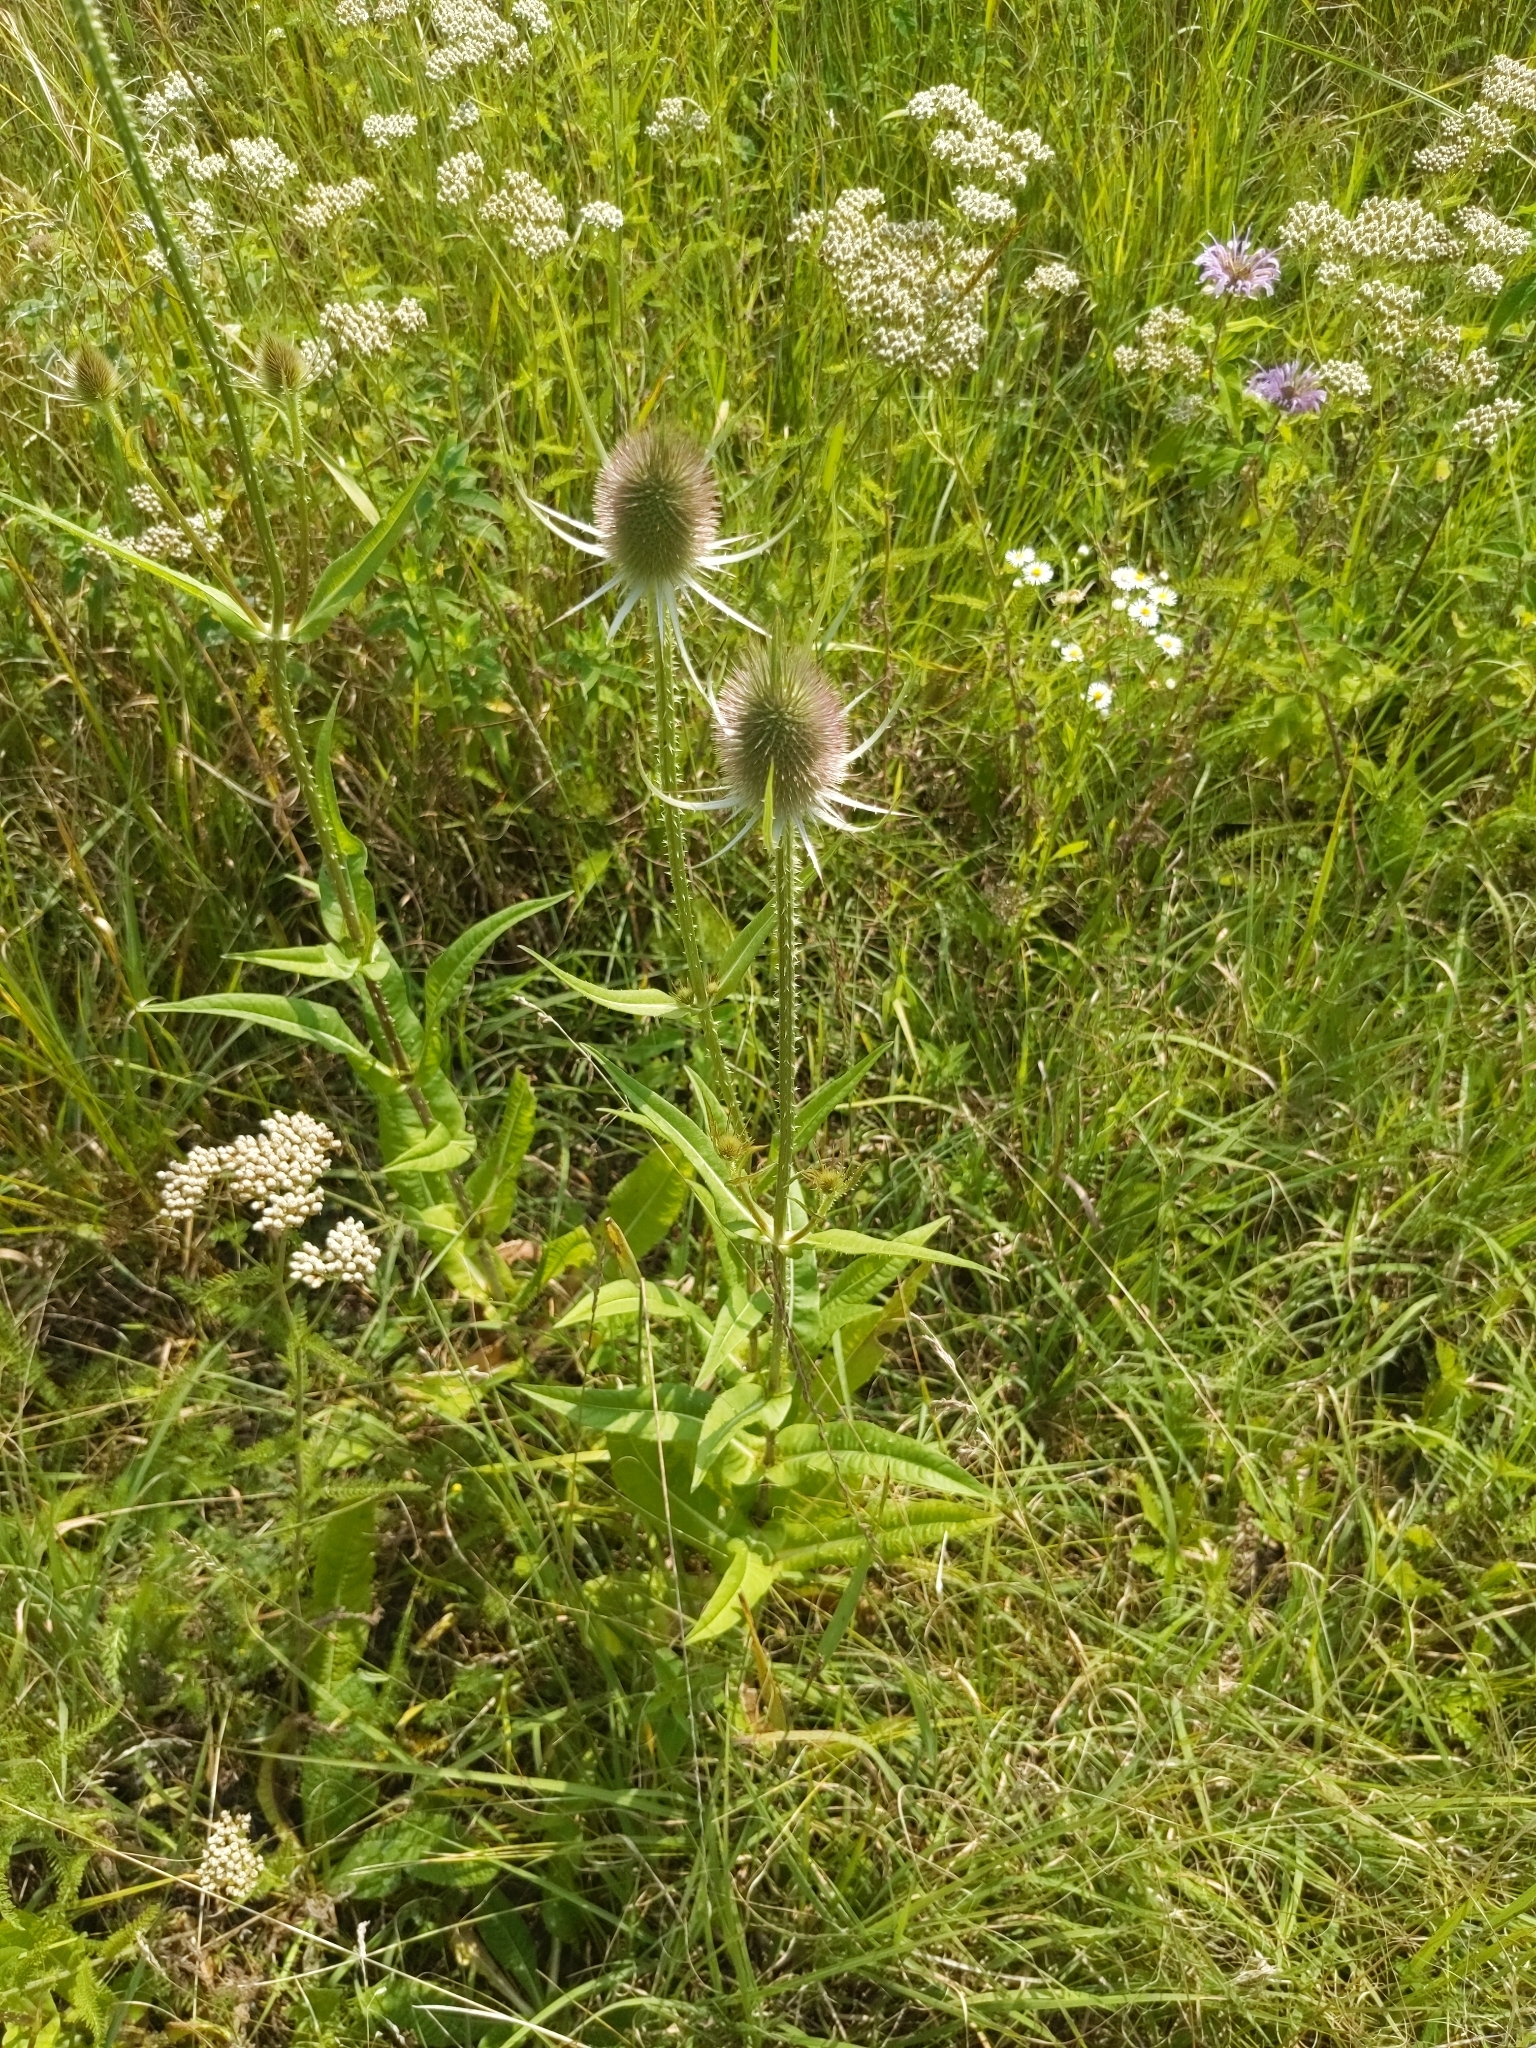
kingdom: Plantae
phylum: Tracheophyta
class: Magnoliopsida
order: Dipsacales
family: Caprifoliaceae
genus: Dipsacus
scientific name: Dipsacus fullonum
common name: Teasel
